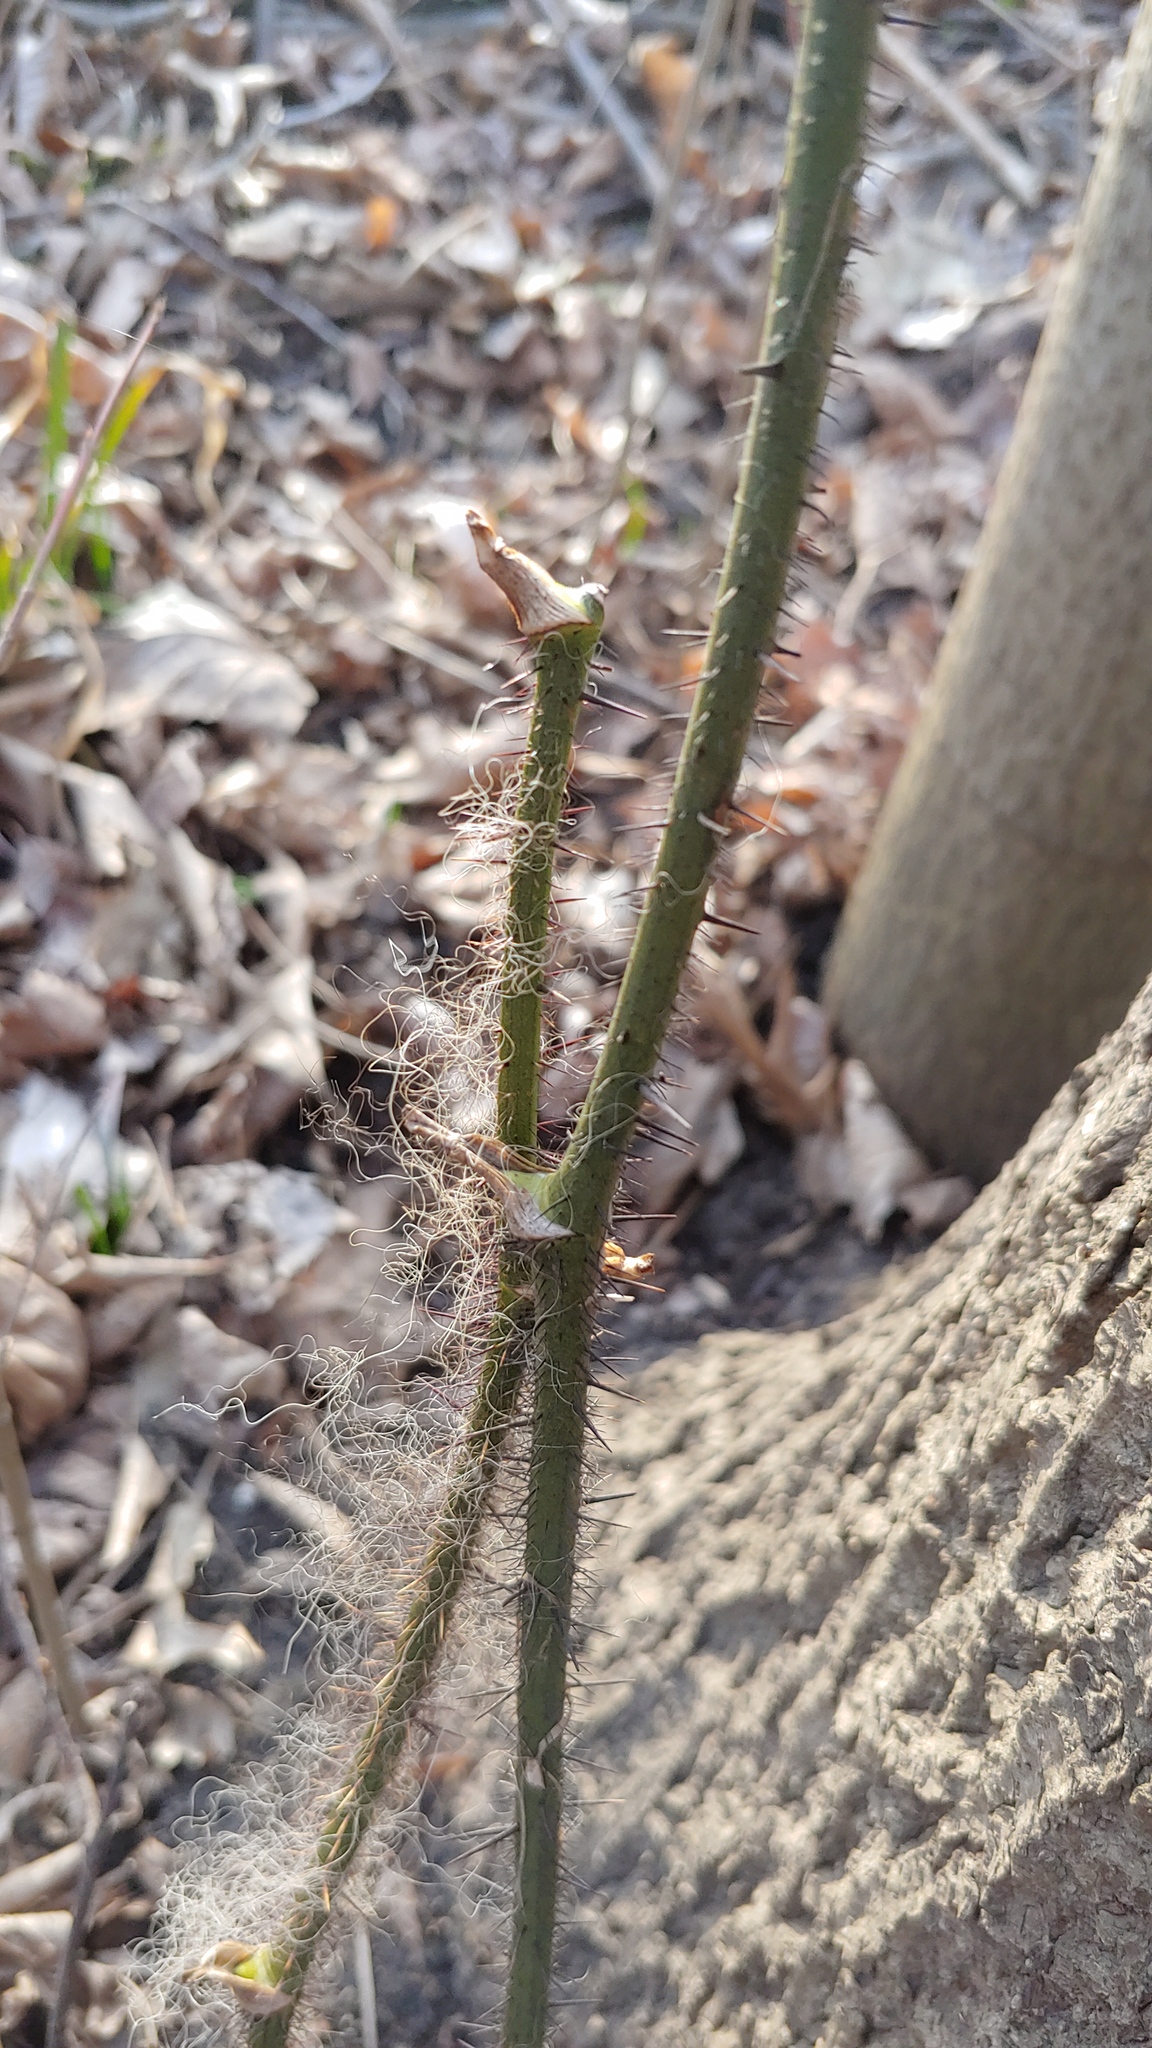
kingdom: Plantae
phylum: Tracheophyta
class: Liliopsida
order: Liliales
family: Smilacaceae
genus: Smilax
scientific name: Smilax tamnoides
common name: Hellfetter
